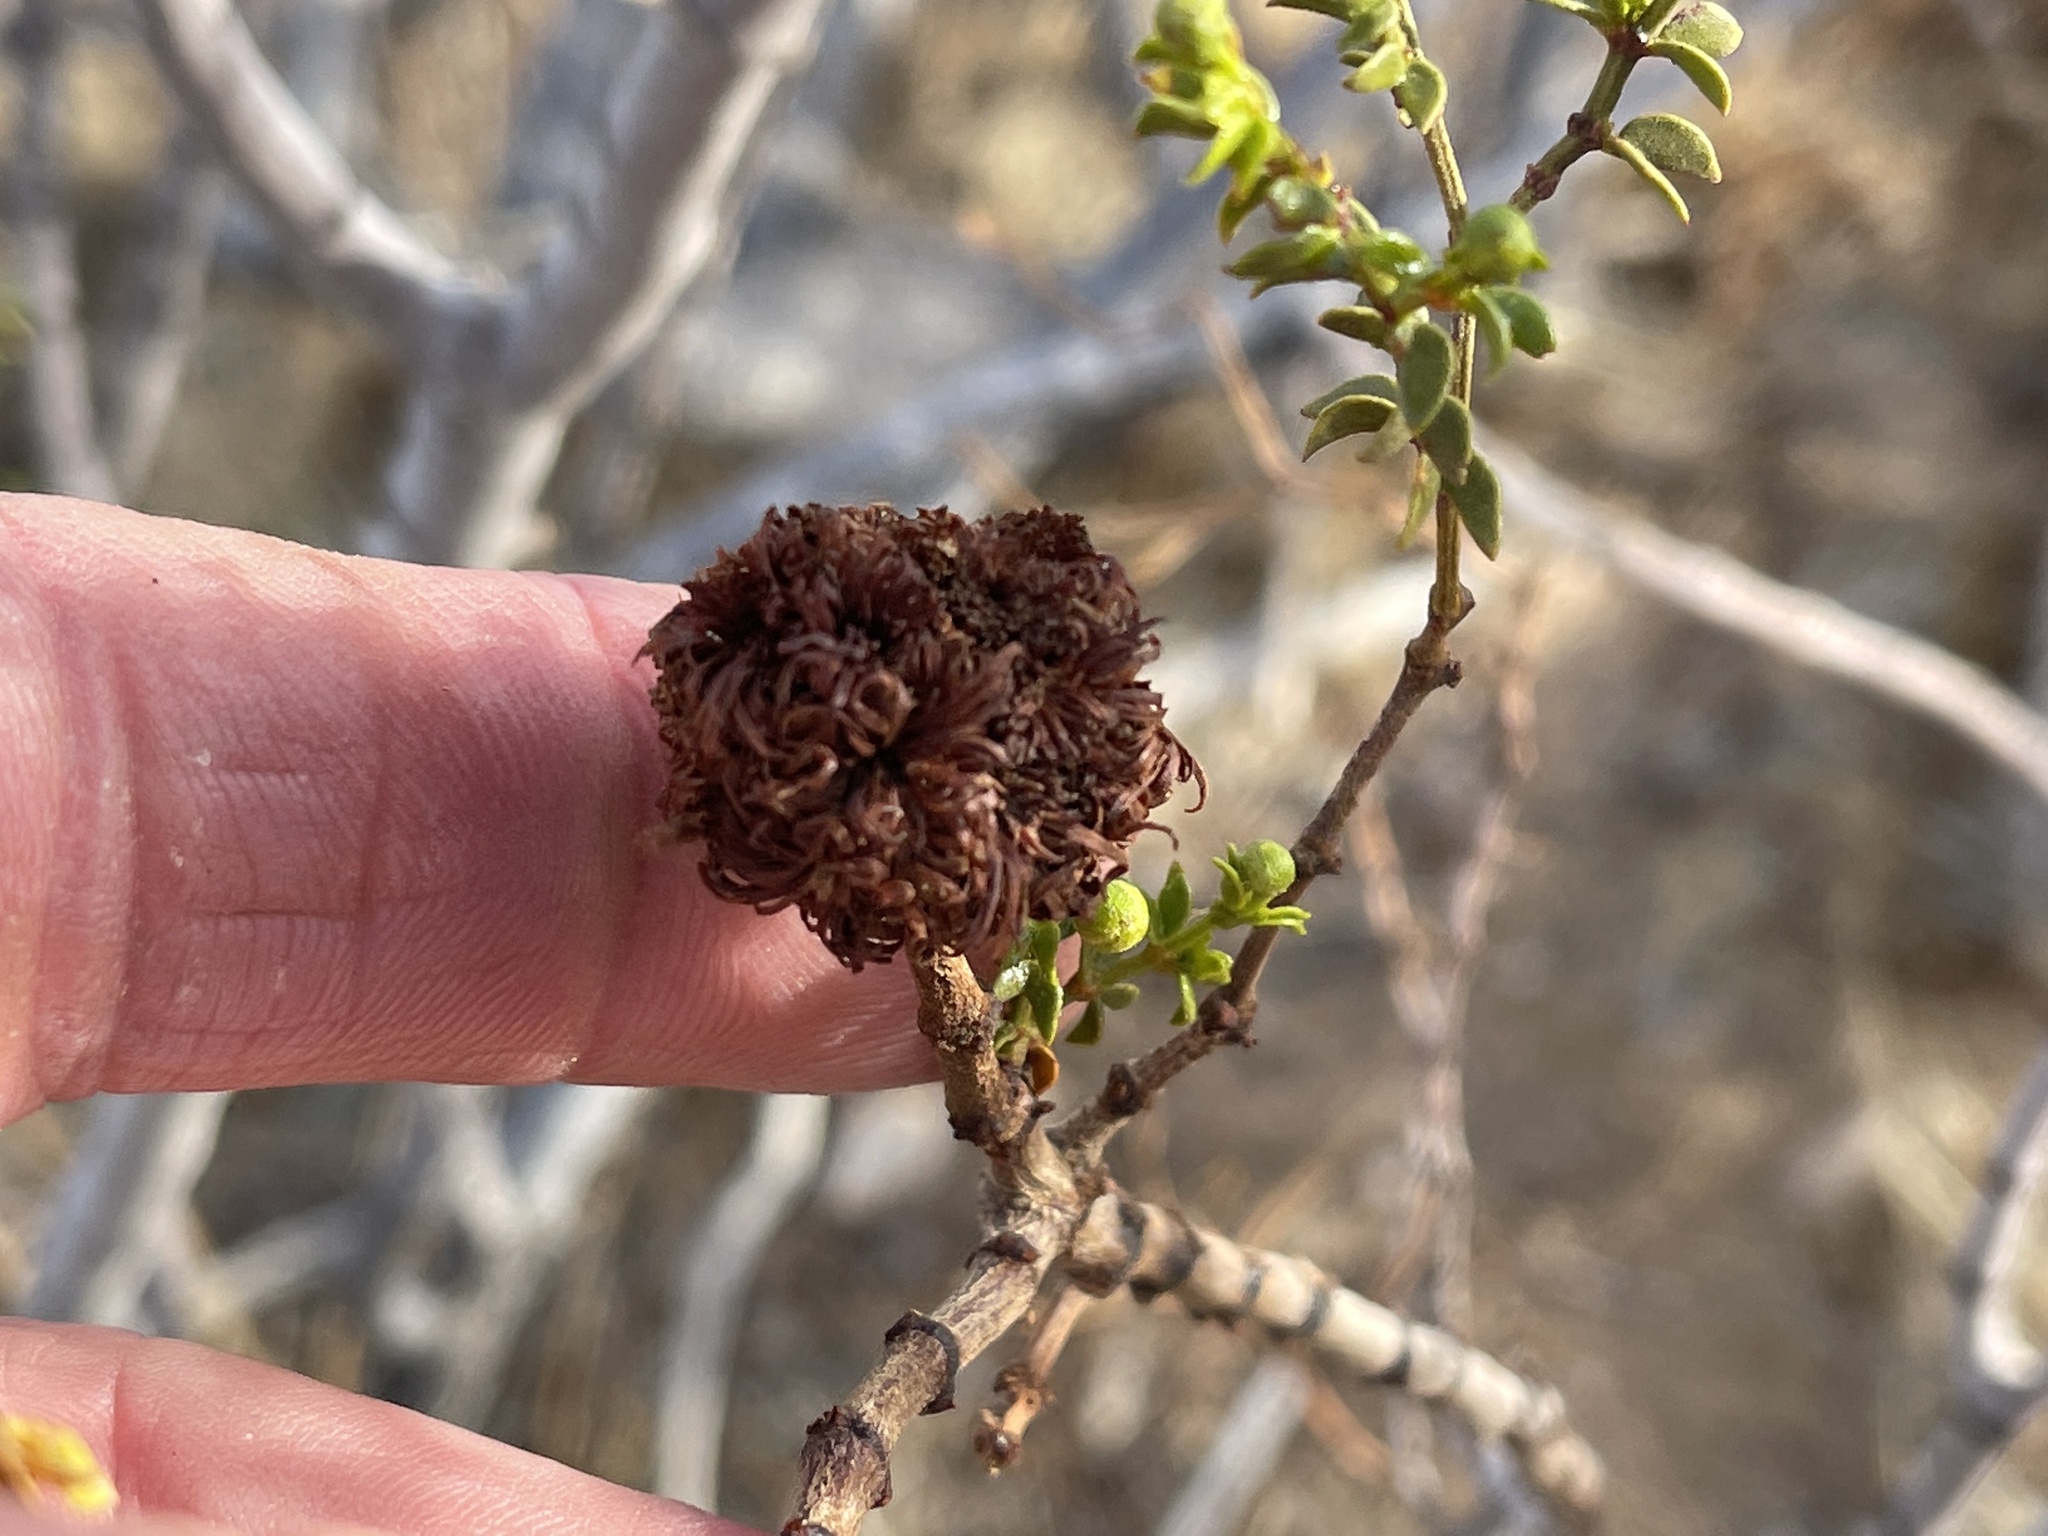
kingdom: Animalia
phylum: Arthropoda
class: Insecta
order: Diptera
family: Cecidomyiidae
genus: Asphondylia
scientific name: Asphondylia auripila
